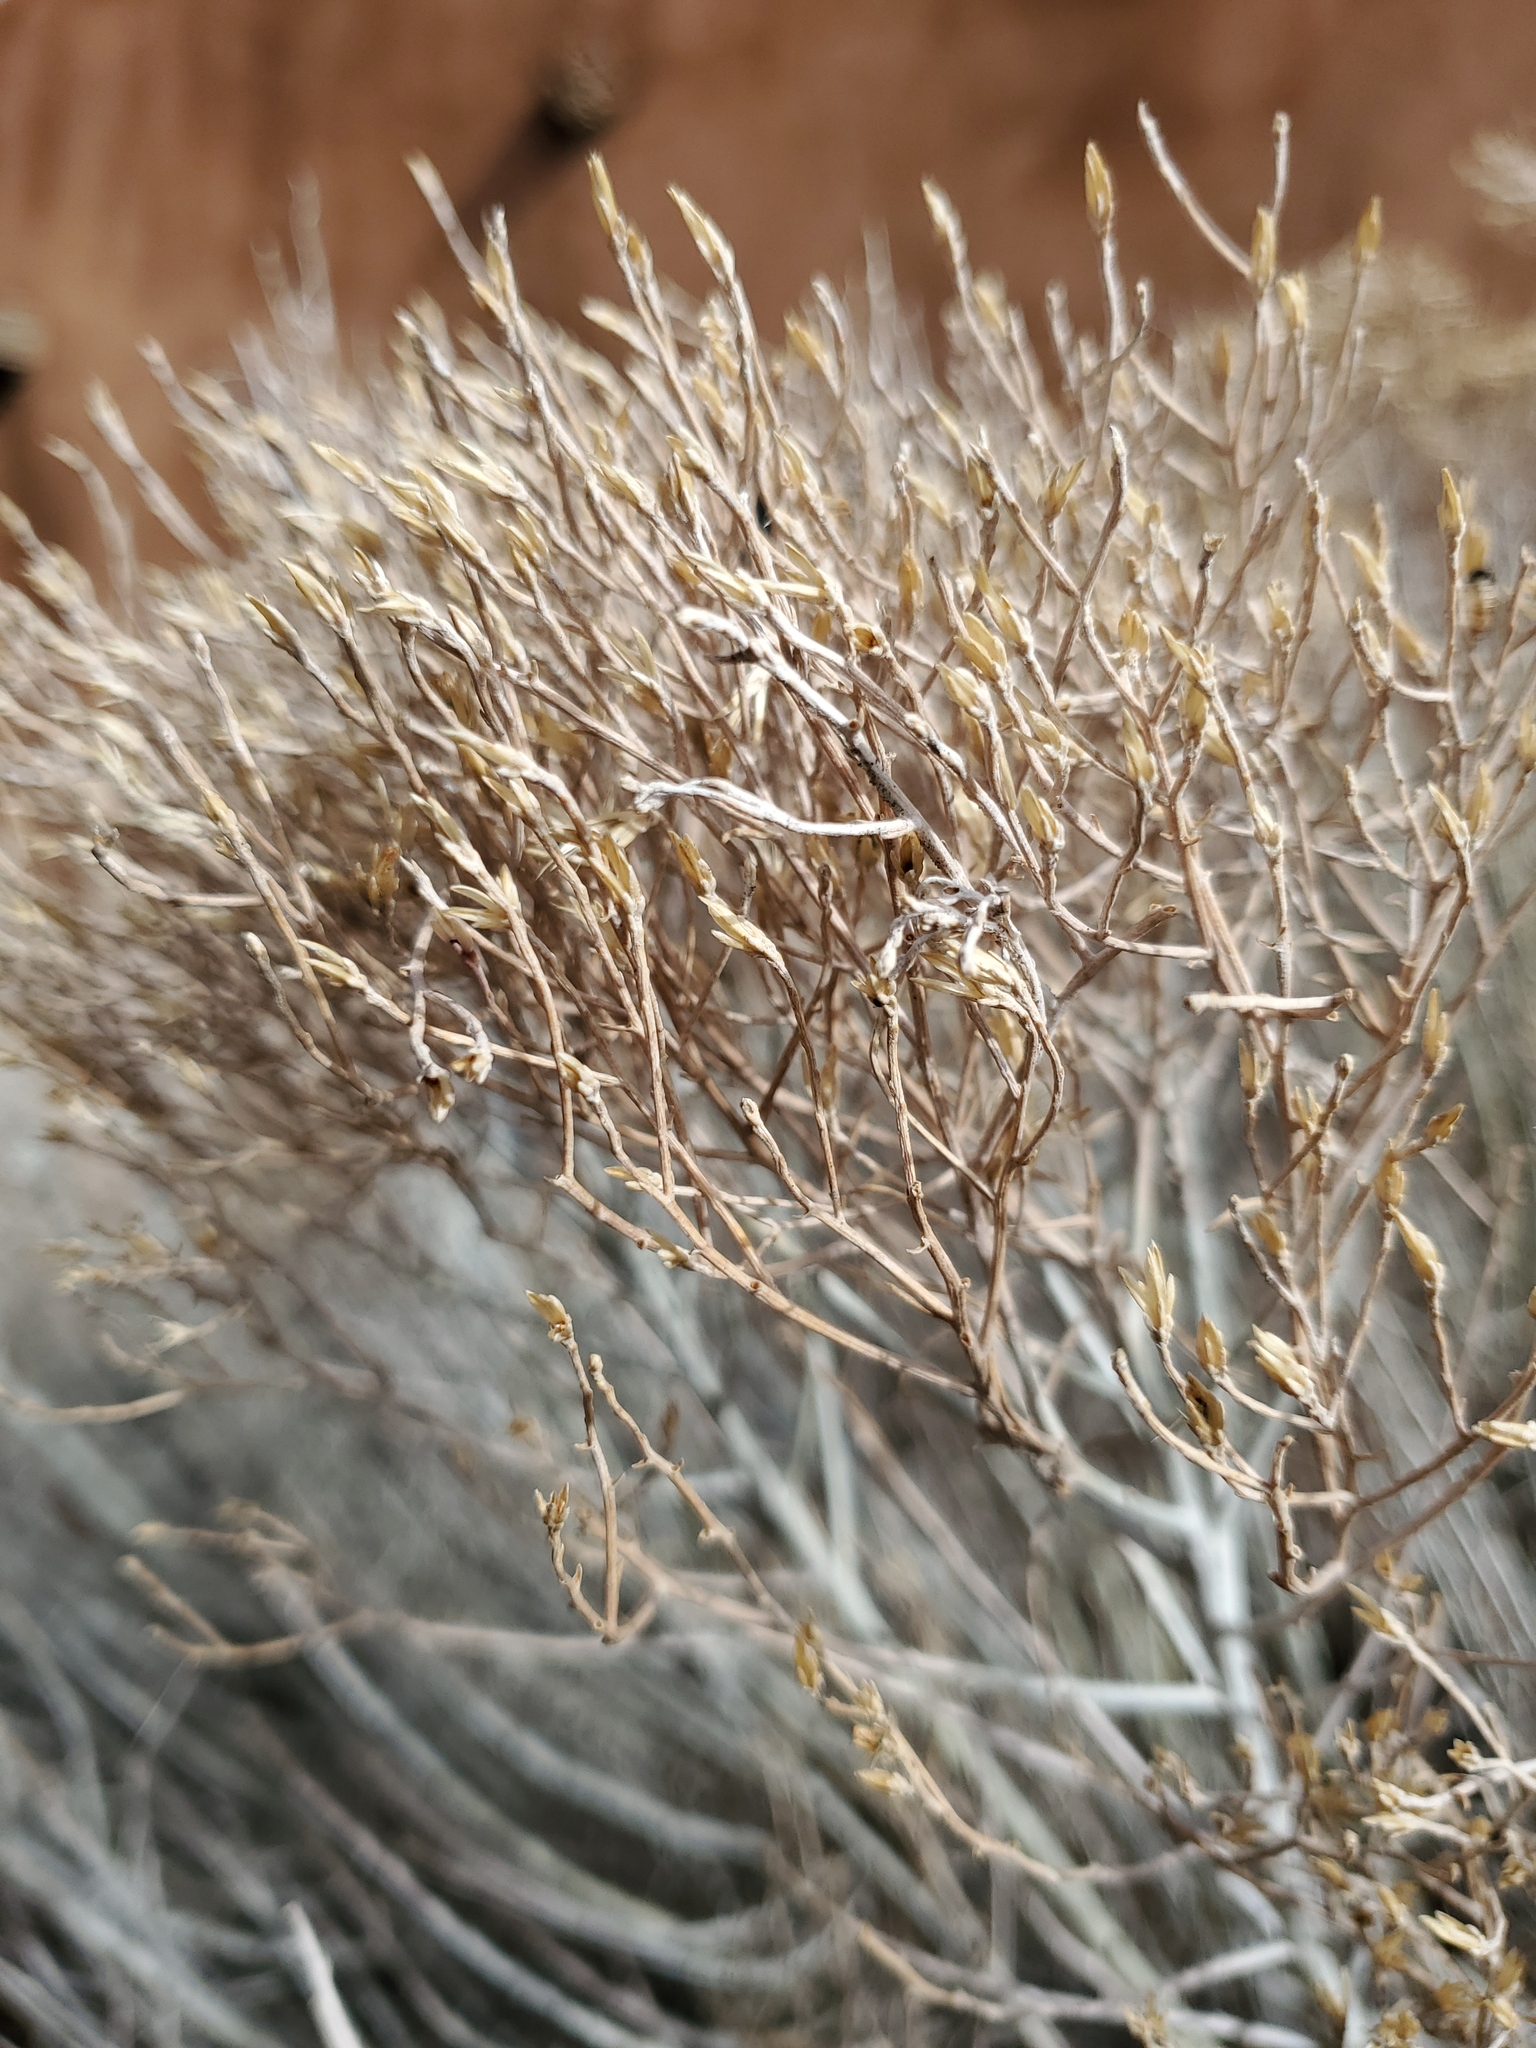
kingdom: Plantae
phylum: Tracheophyta
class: Magnoliopsida
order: Asterales
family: Asteraceae
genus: Ericameria
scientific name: Ericameria nauseosa
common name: Rubber rabbitbrush
